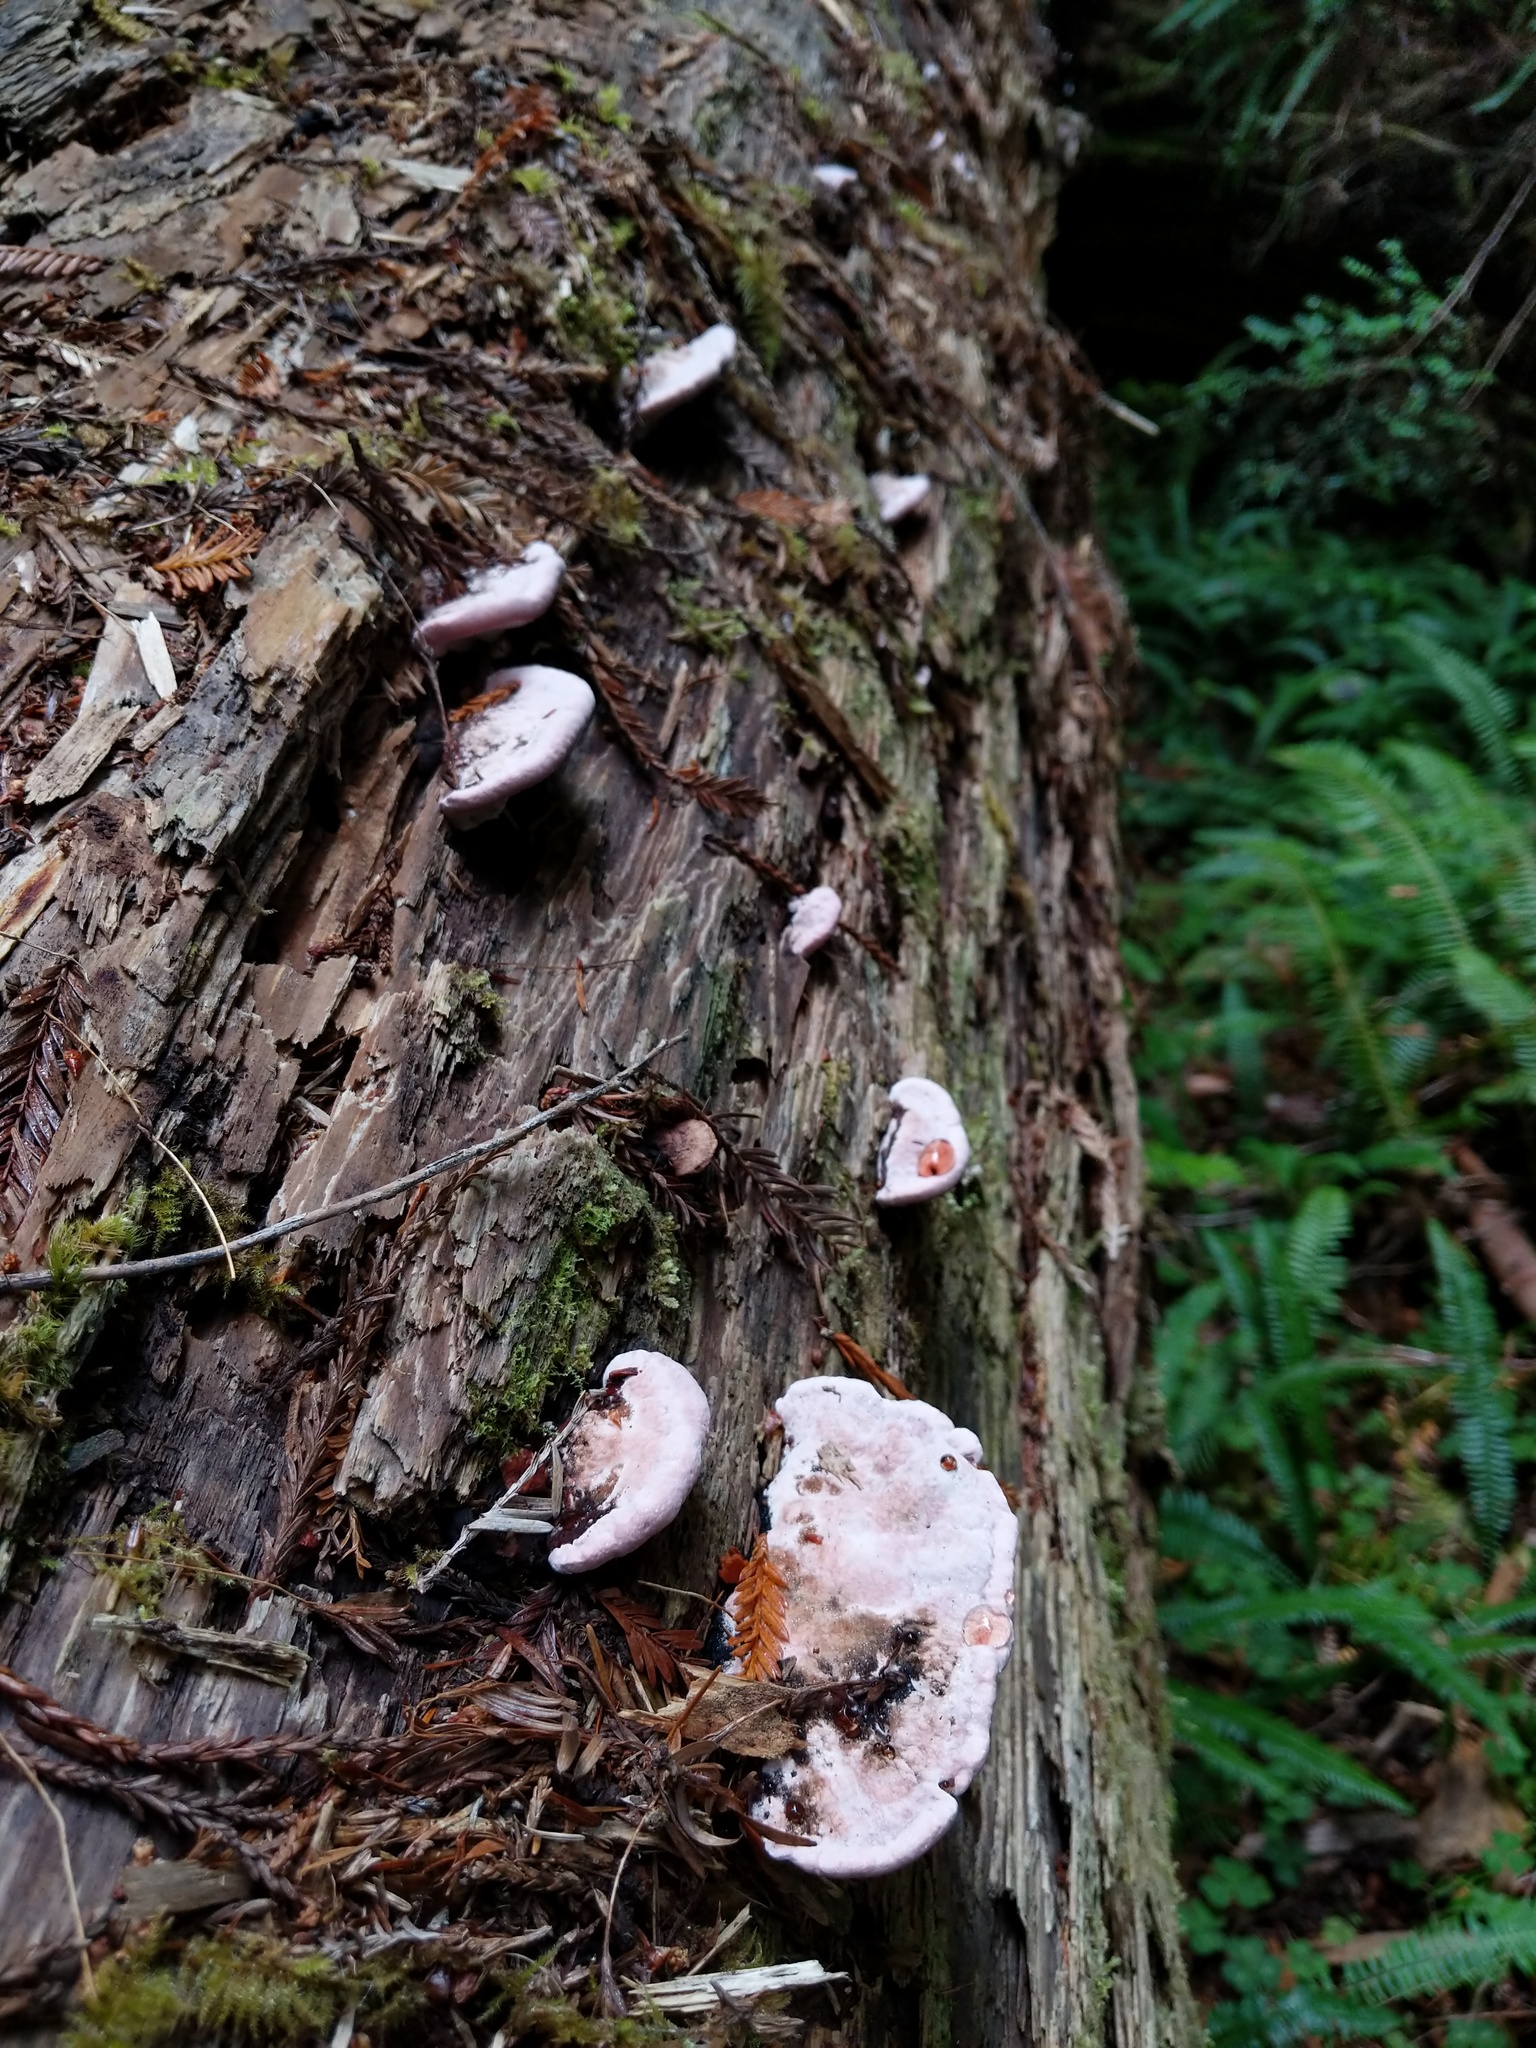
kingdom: Fungi
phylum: Basidiomycota
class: Agaricomycetes
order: Polyporales
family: Fomitopsidaceae
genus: Rhodofomes
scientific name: Rhodofomes cajanderi
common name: Rosy conk
